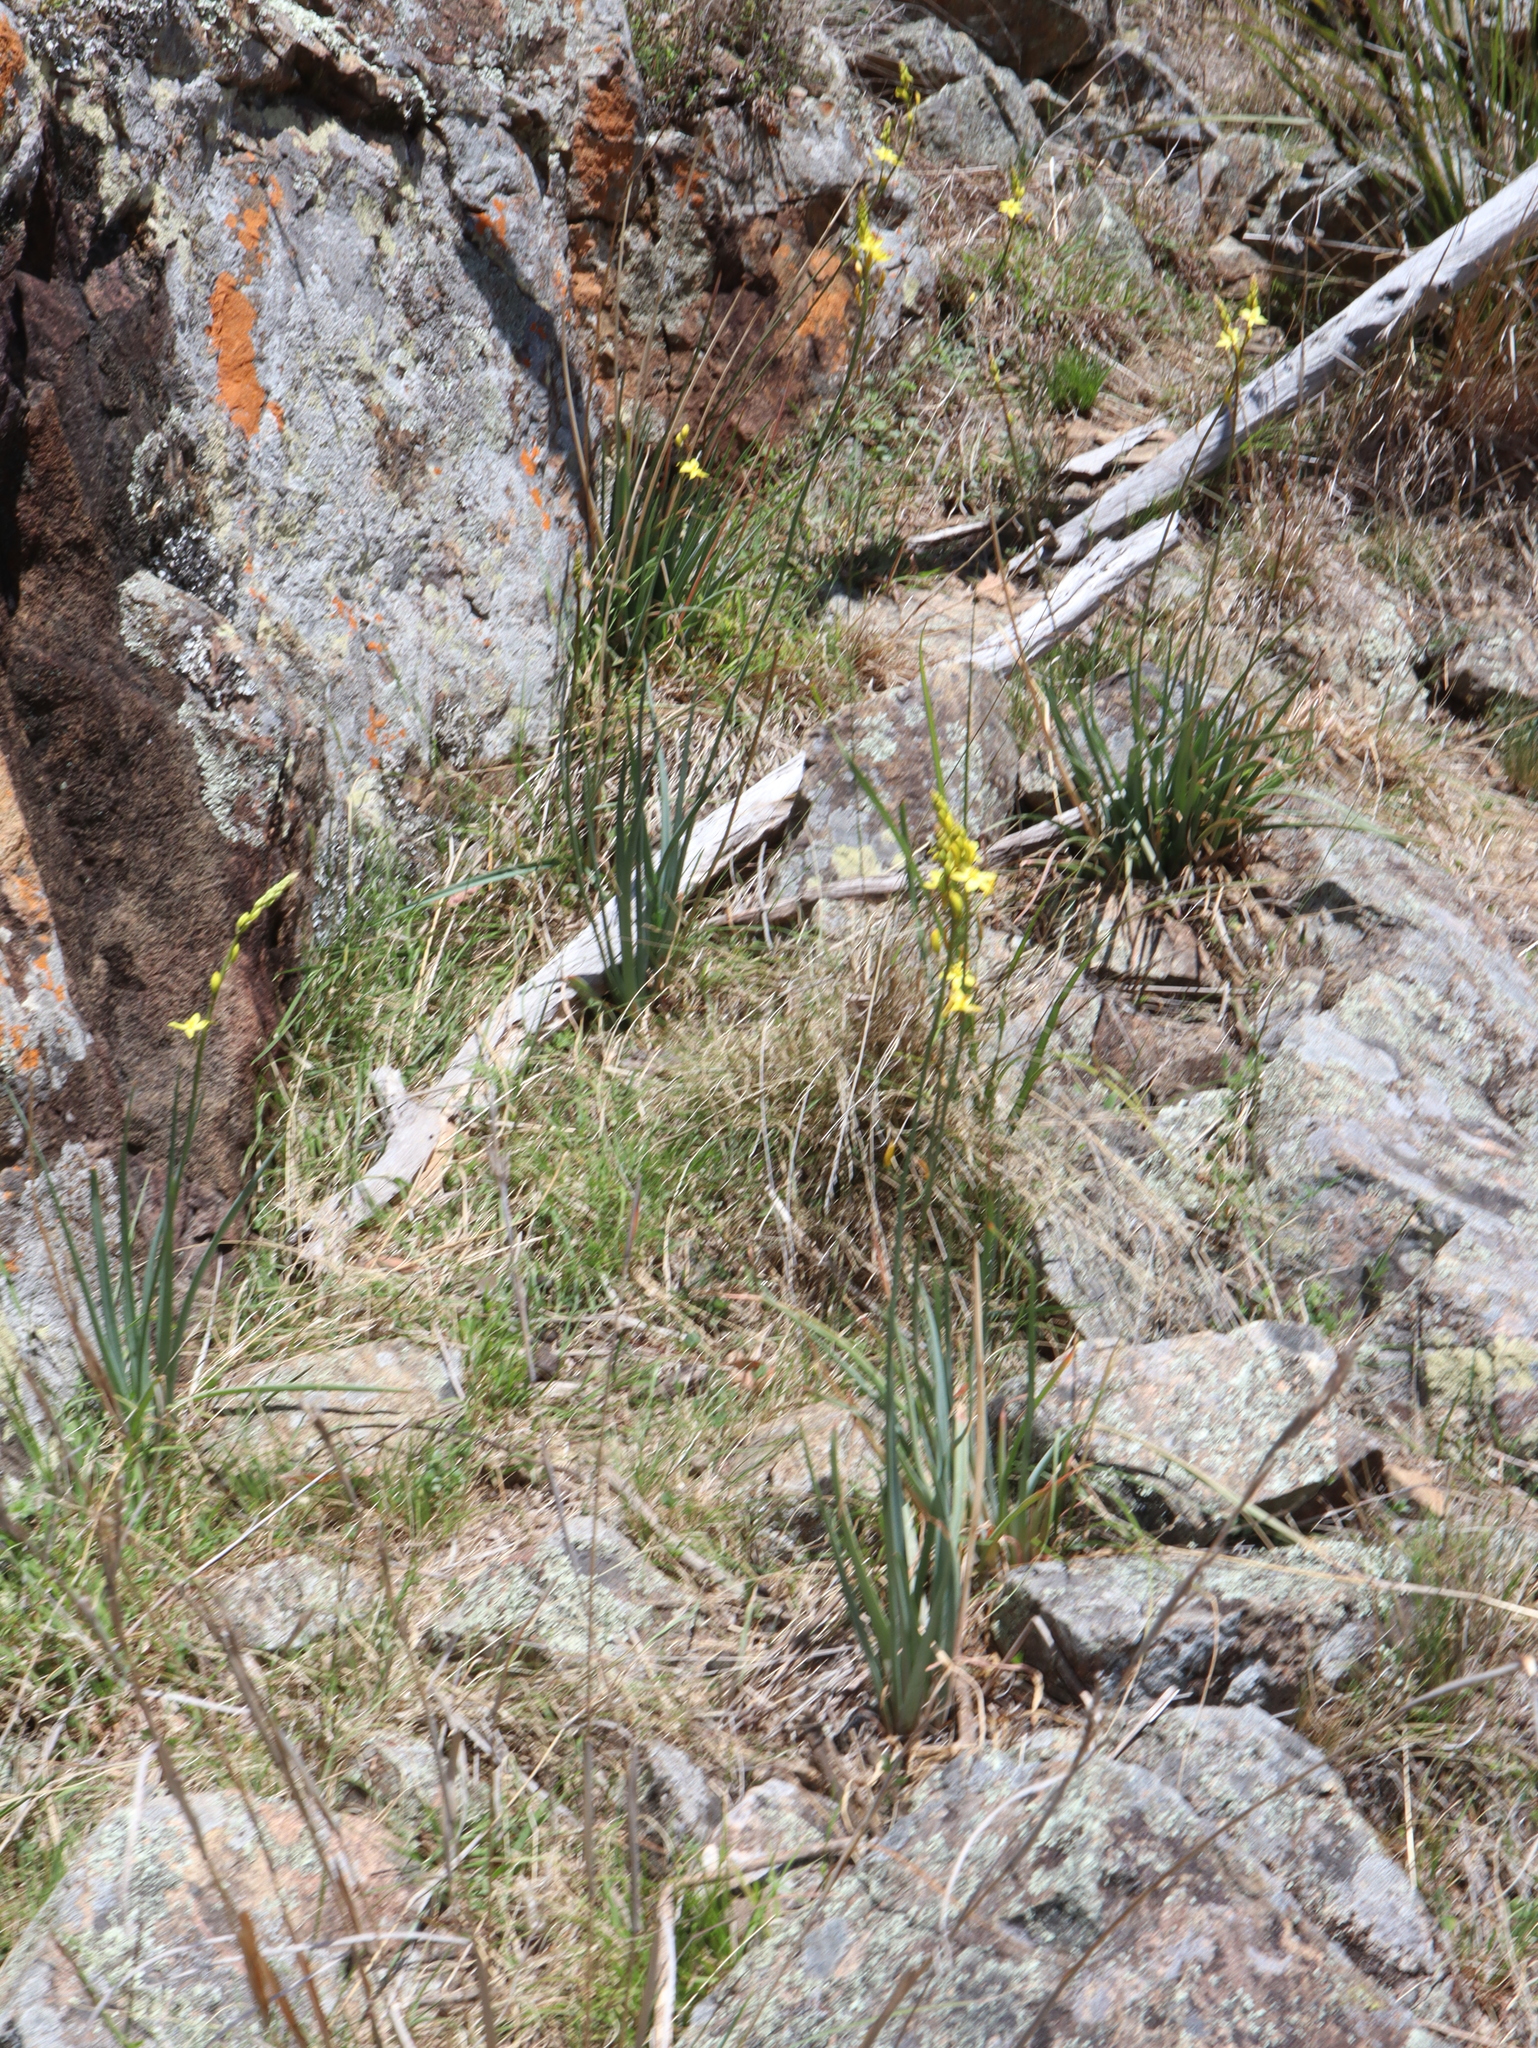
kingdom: Plantae
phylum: Tracheophyta
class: Liliopsida
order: Asparagales
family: Asphodelaceae
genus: Bulbine
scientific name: Bulbine glauca
